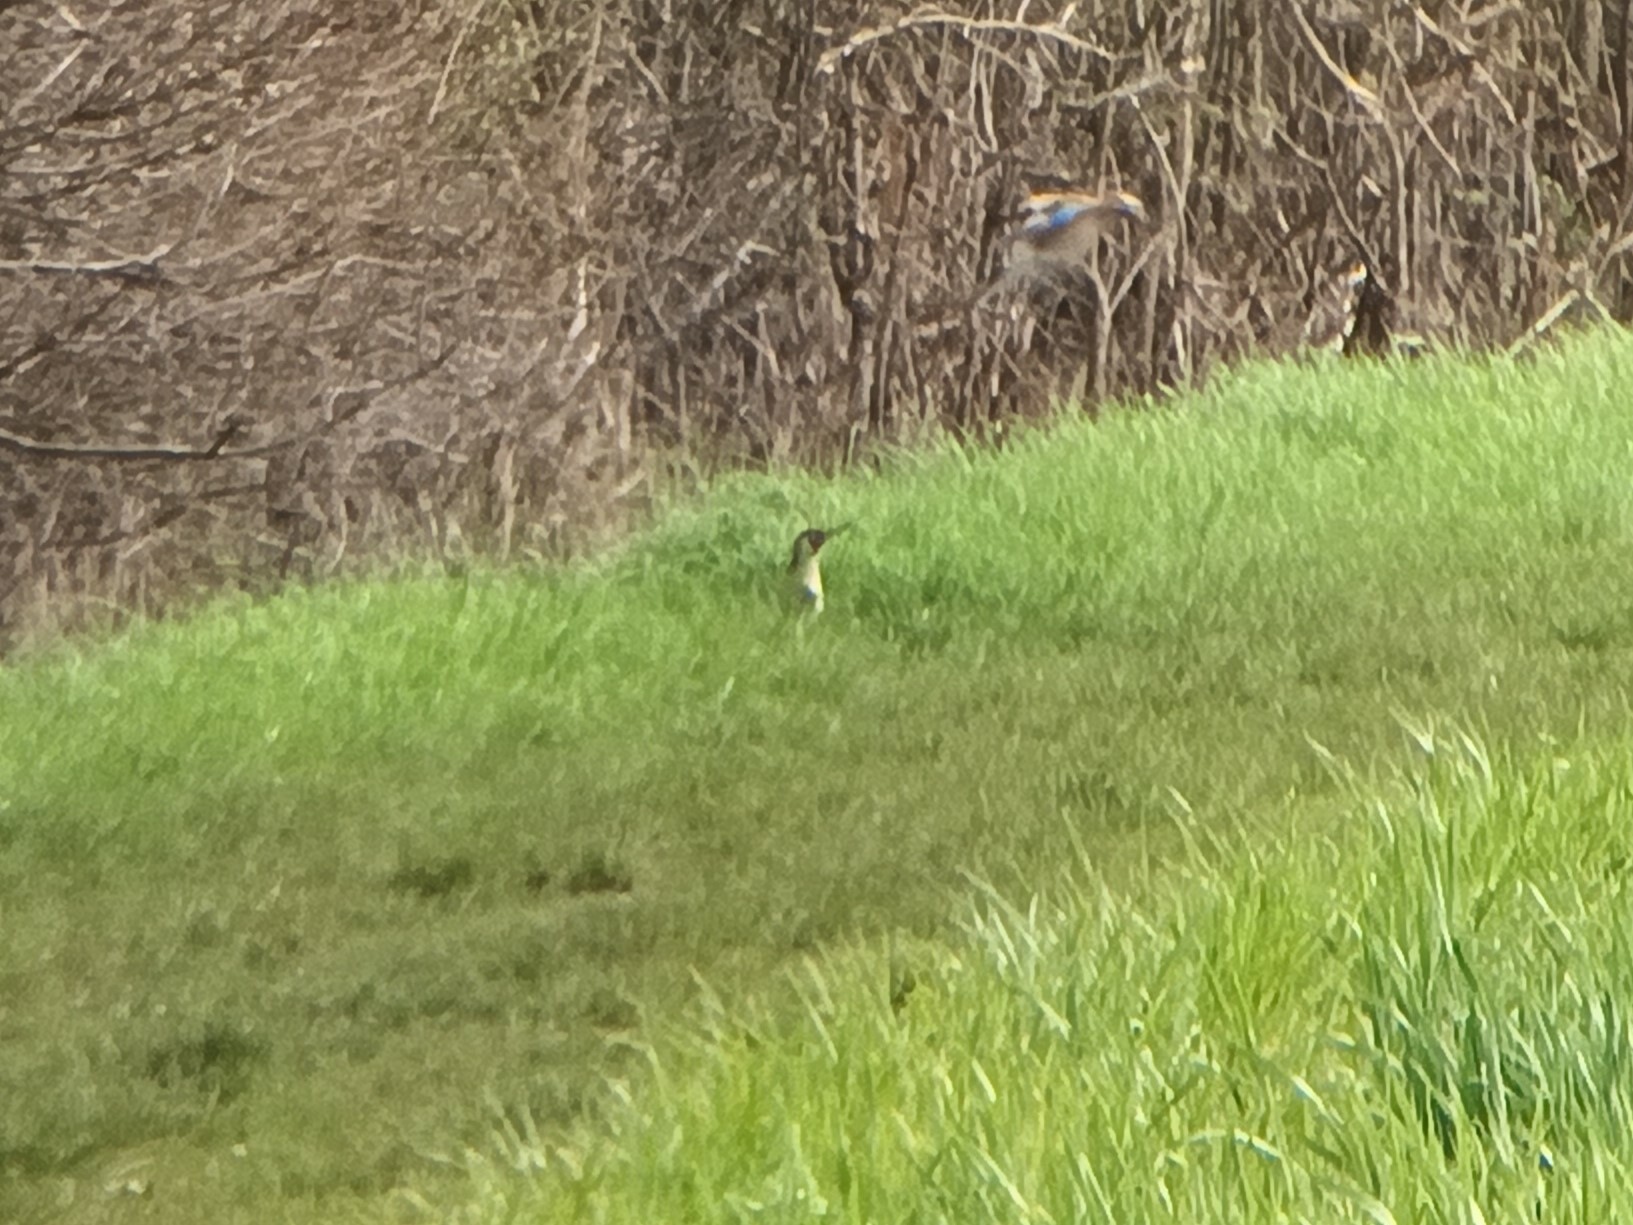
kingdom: Animalia
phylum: Chordata
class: Aves
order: Piciformes
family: Picidae
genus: Picus
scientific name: Picus viridis
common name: European green woodpecker
